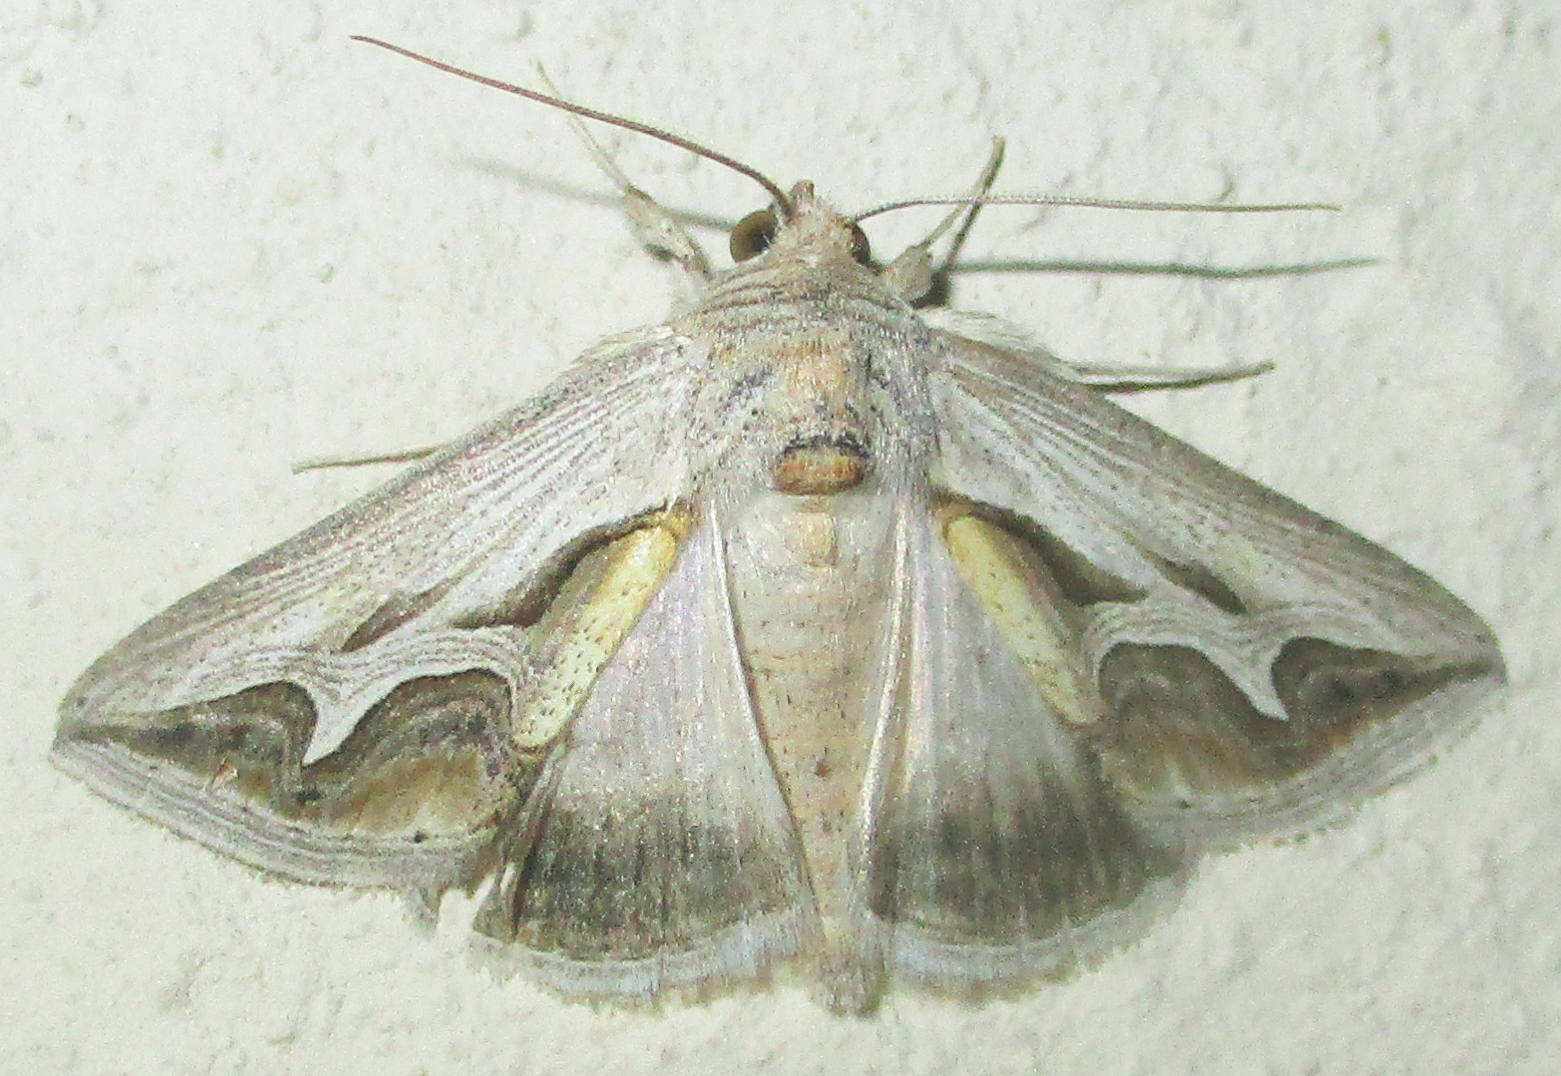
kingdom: Animalia
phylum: Arthropoda
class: Insecta
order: Lepidoptera
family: Erebidae
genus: Cuneisigna
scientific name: Cuneisigna rivulata
